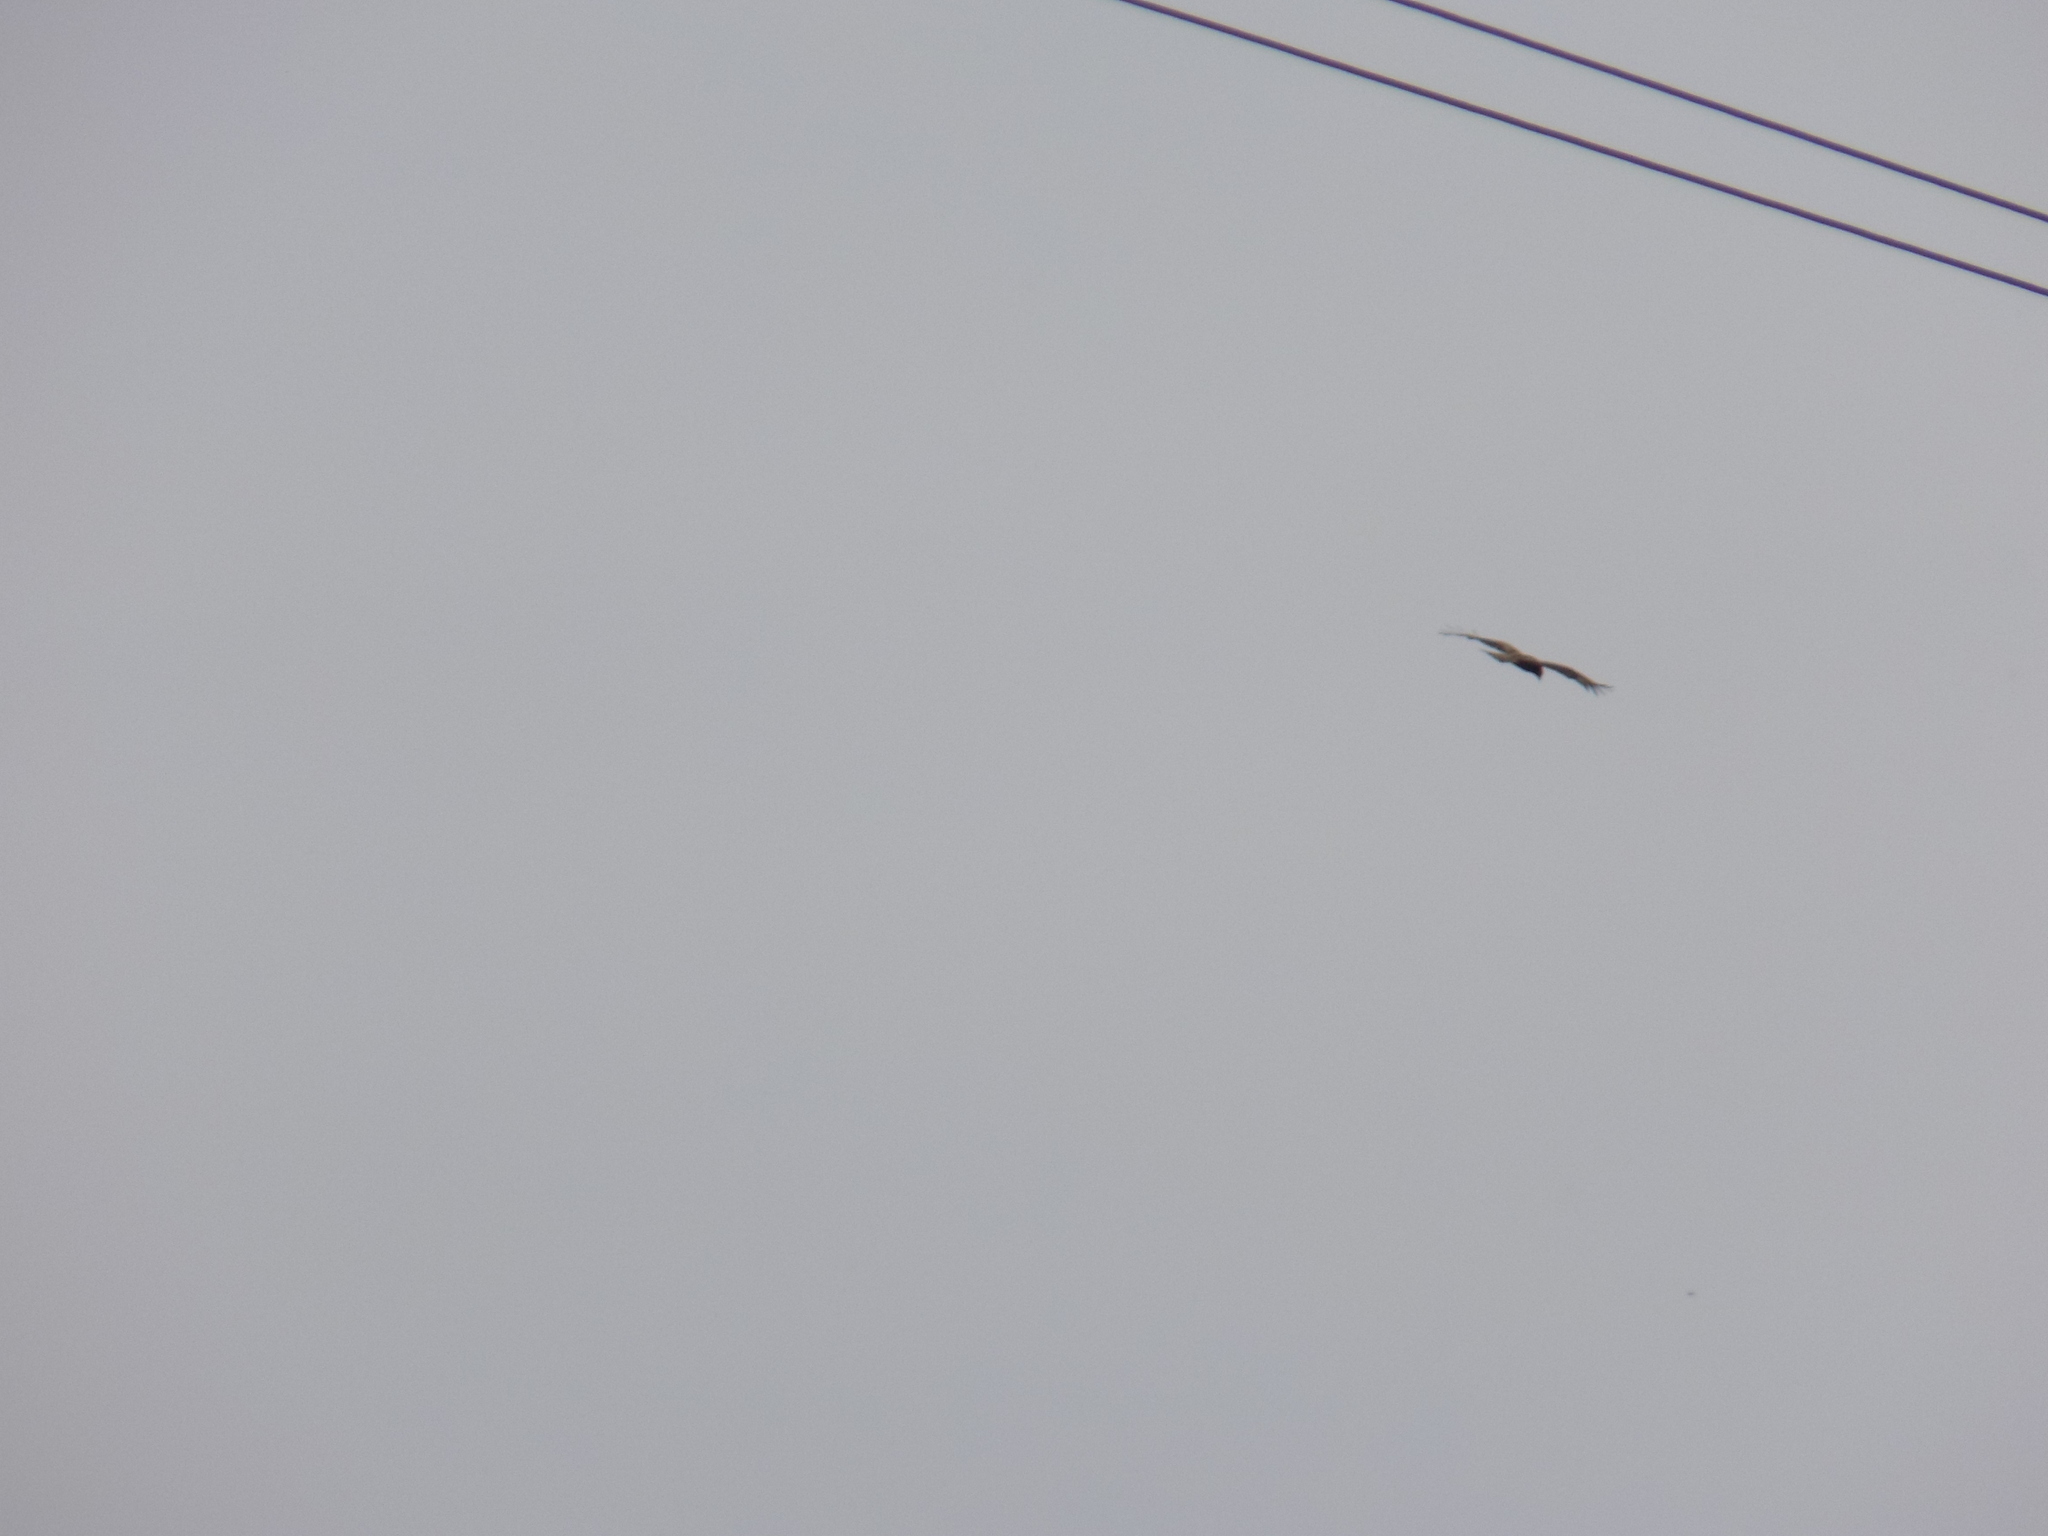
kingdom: Animalia
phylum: Chordata
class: Aves
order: Accipitriformes
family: Accipitridae
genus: Milvus
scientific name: Milvus migrans
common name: Black kite
